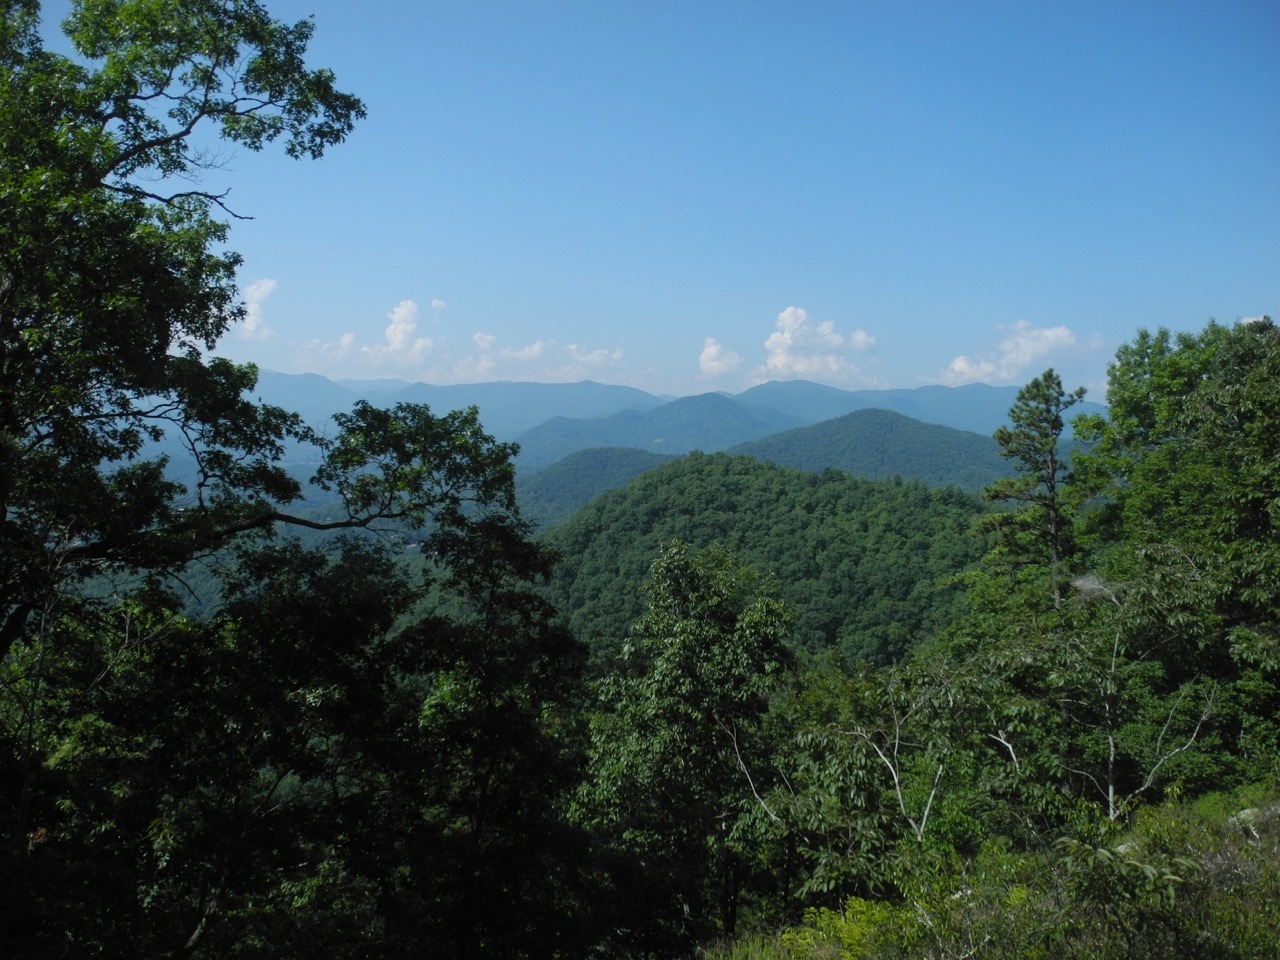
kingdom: Plantae
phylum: Tracheophyta
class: Pinopsida
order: Pinales
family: Pinaceae
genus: Pinus
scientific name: Pinus virginiana
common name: Scrub pine
